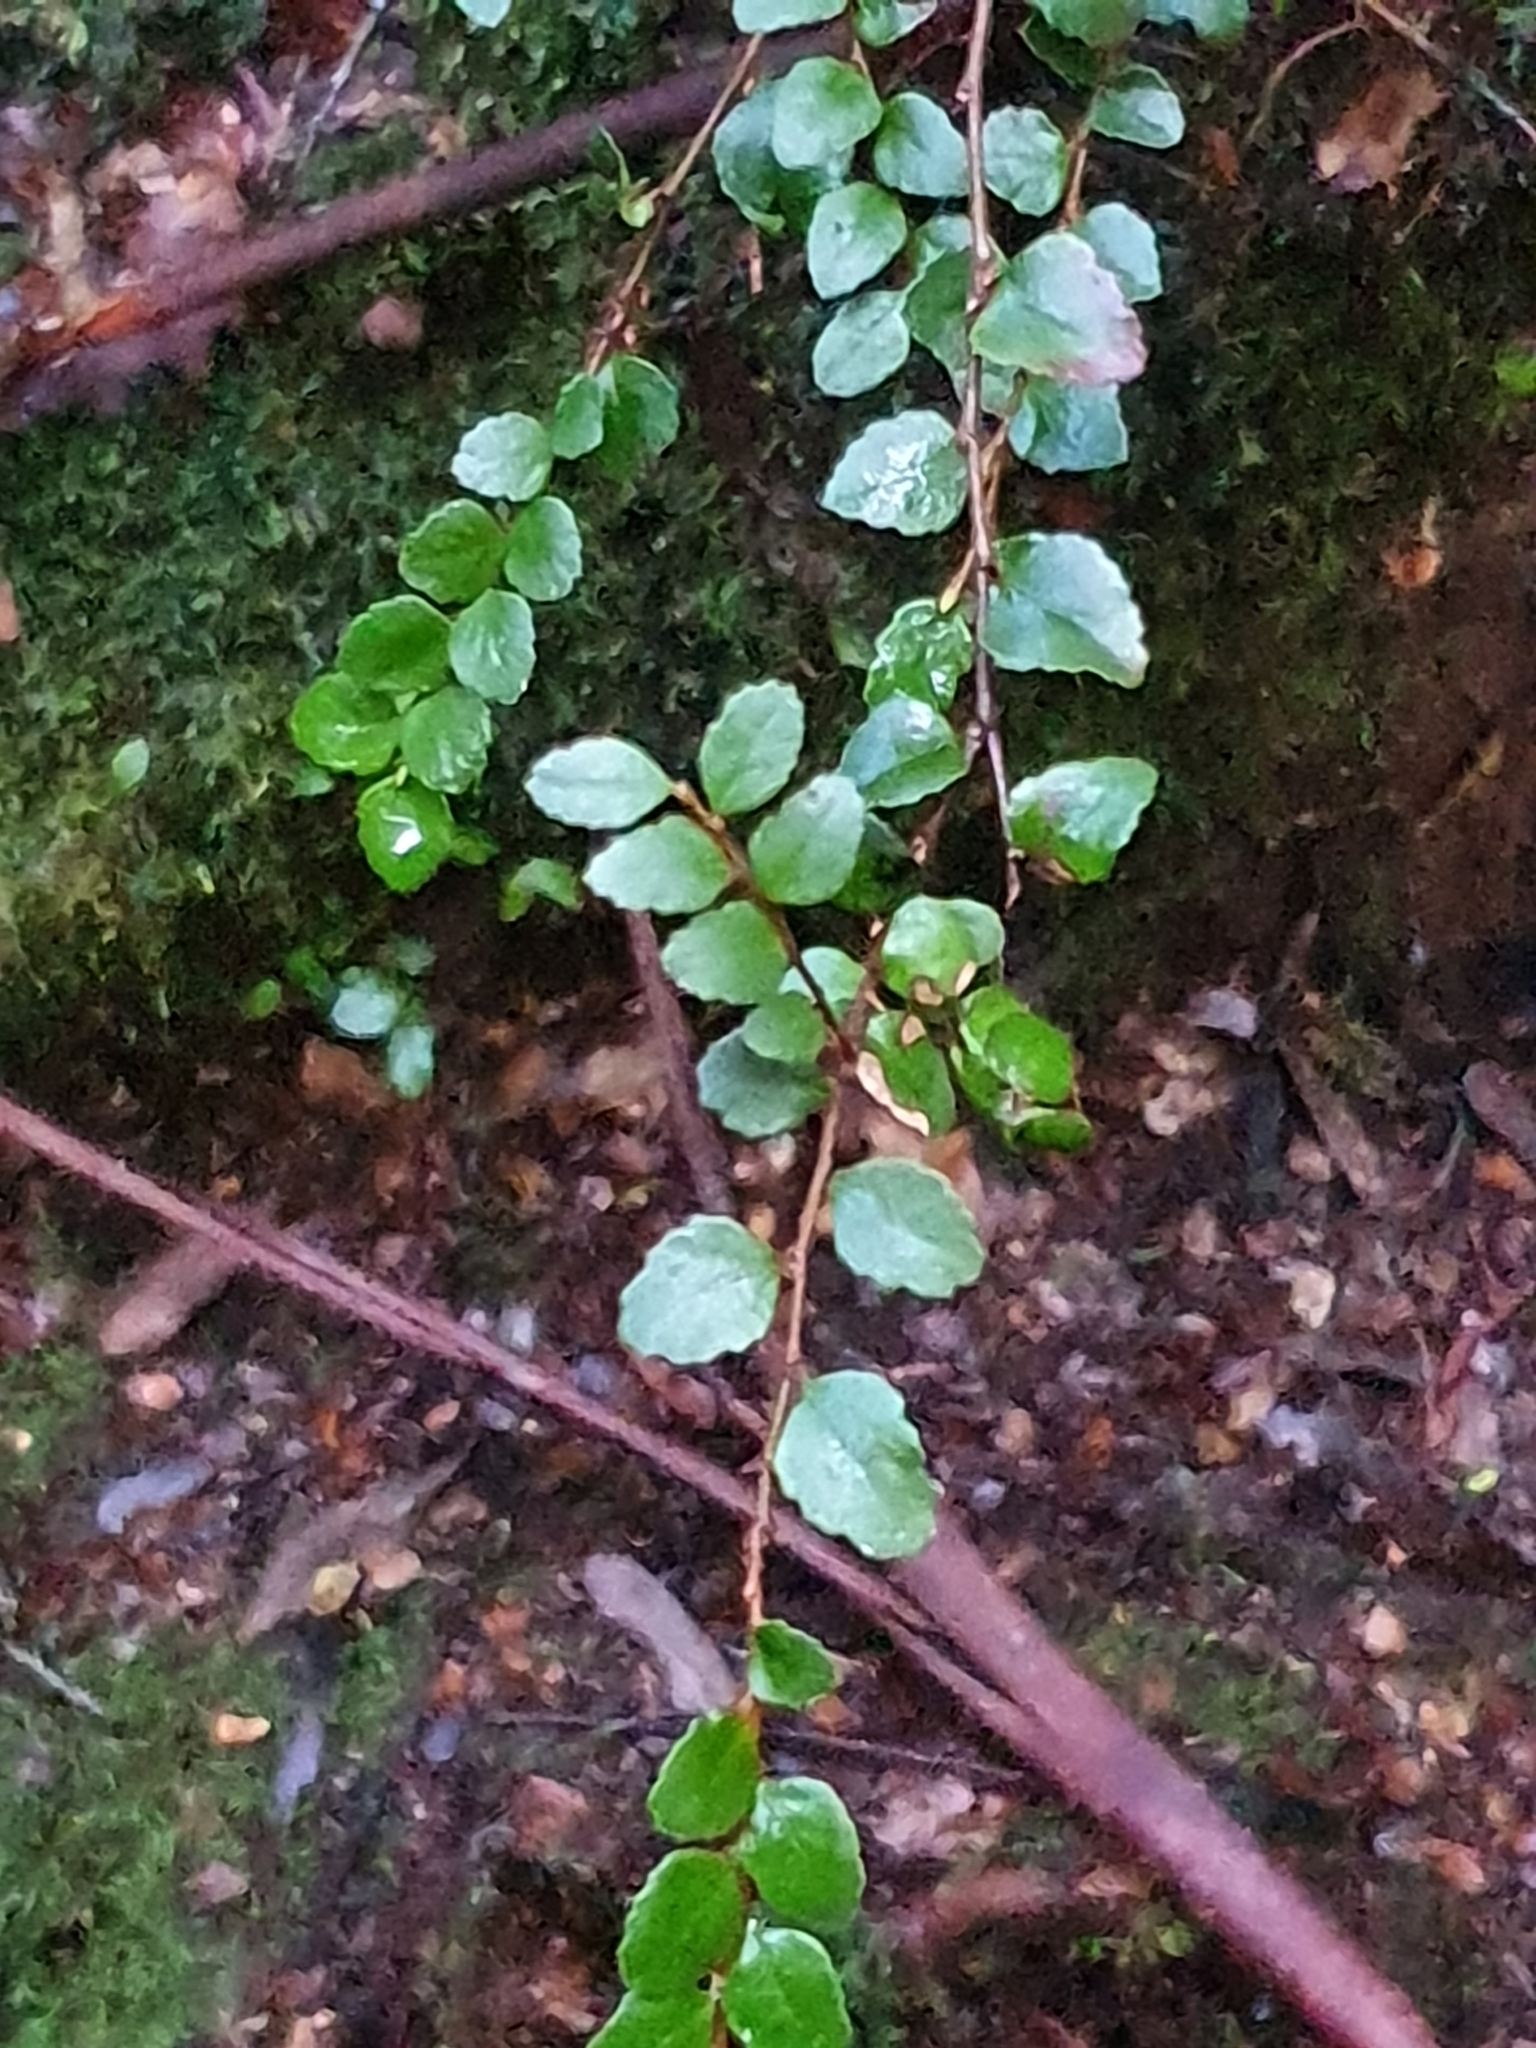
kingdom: Plantae
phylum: Tracheophyta
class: Magnoliopsida
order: Fagales
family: Nothofagaceae
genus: Nothofagus
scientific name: Nothofagus cunninghamii
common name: Myrtle beech
